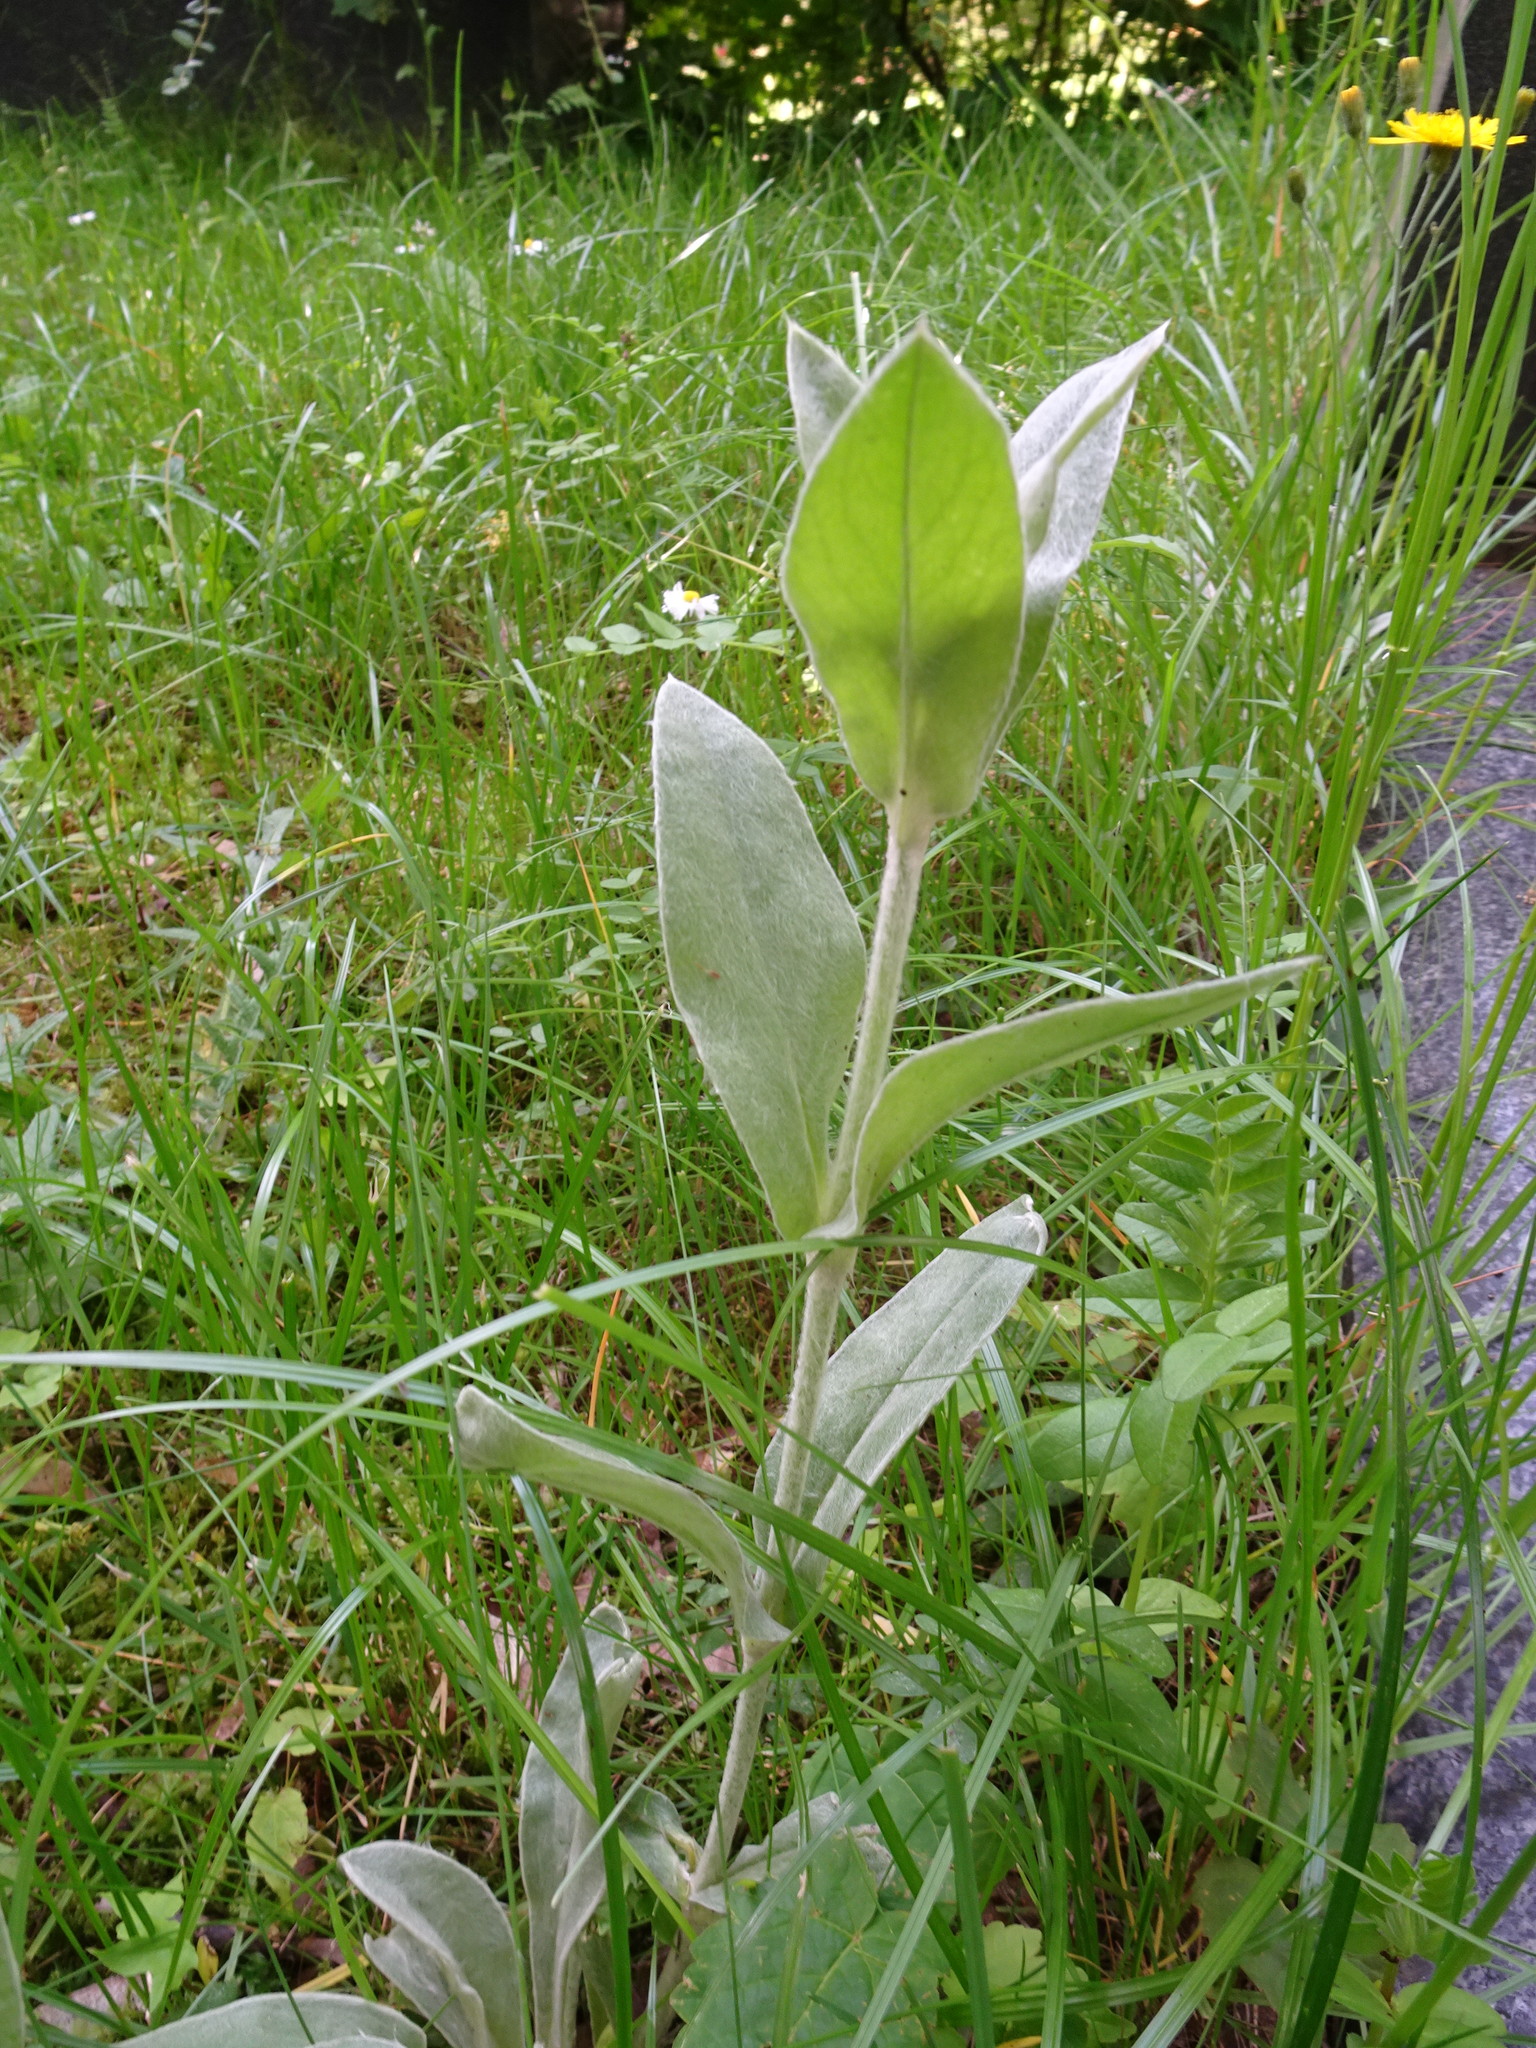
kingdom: Plantae
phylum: Tracheophyta
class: Magnoliopsida
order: Caryophyllales
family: Caryophyllaceae
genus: Silene
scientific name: Silene coronaria
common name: Rose campion
